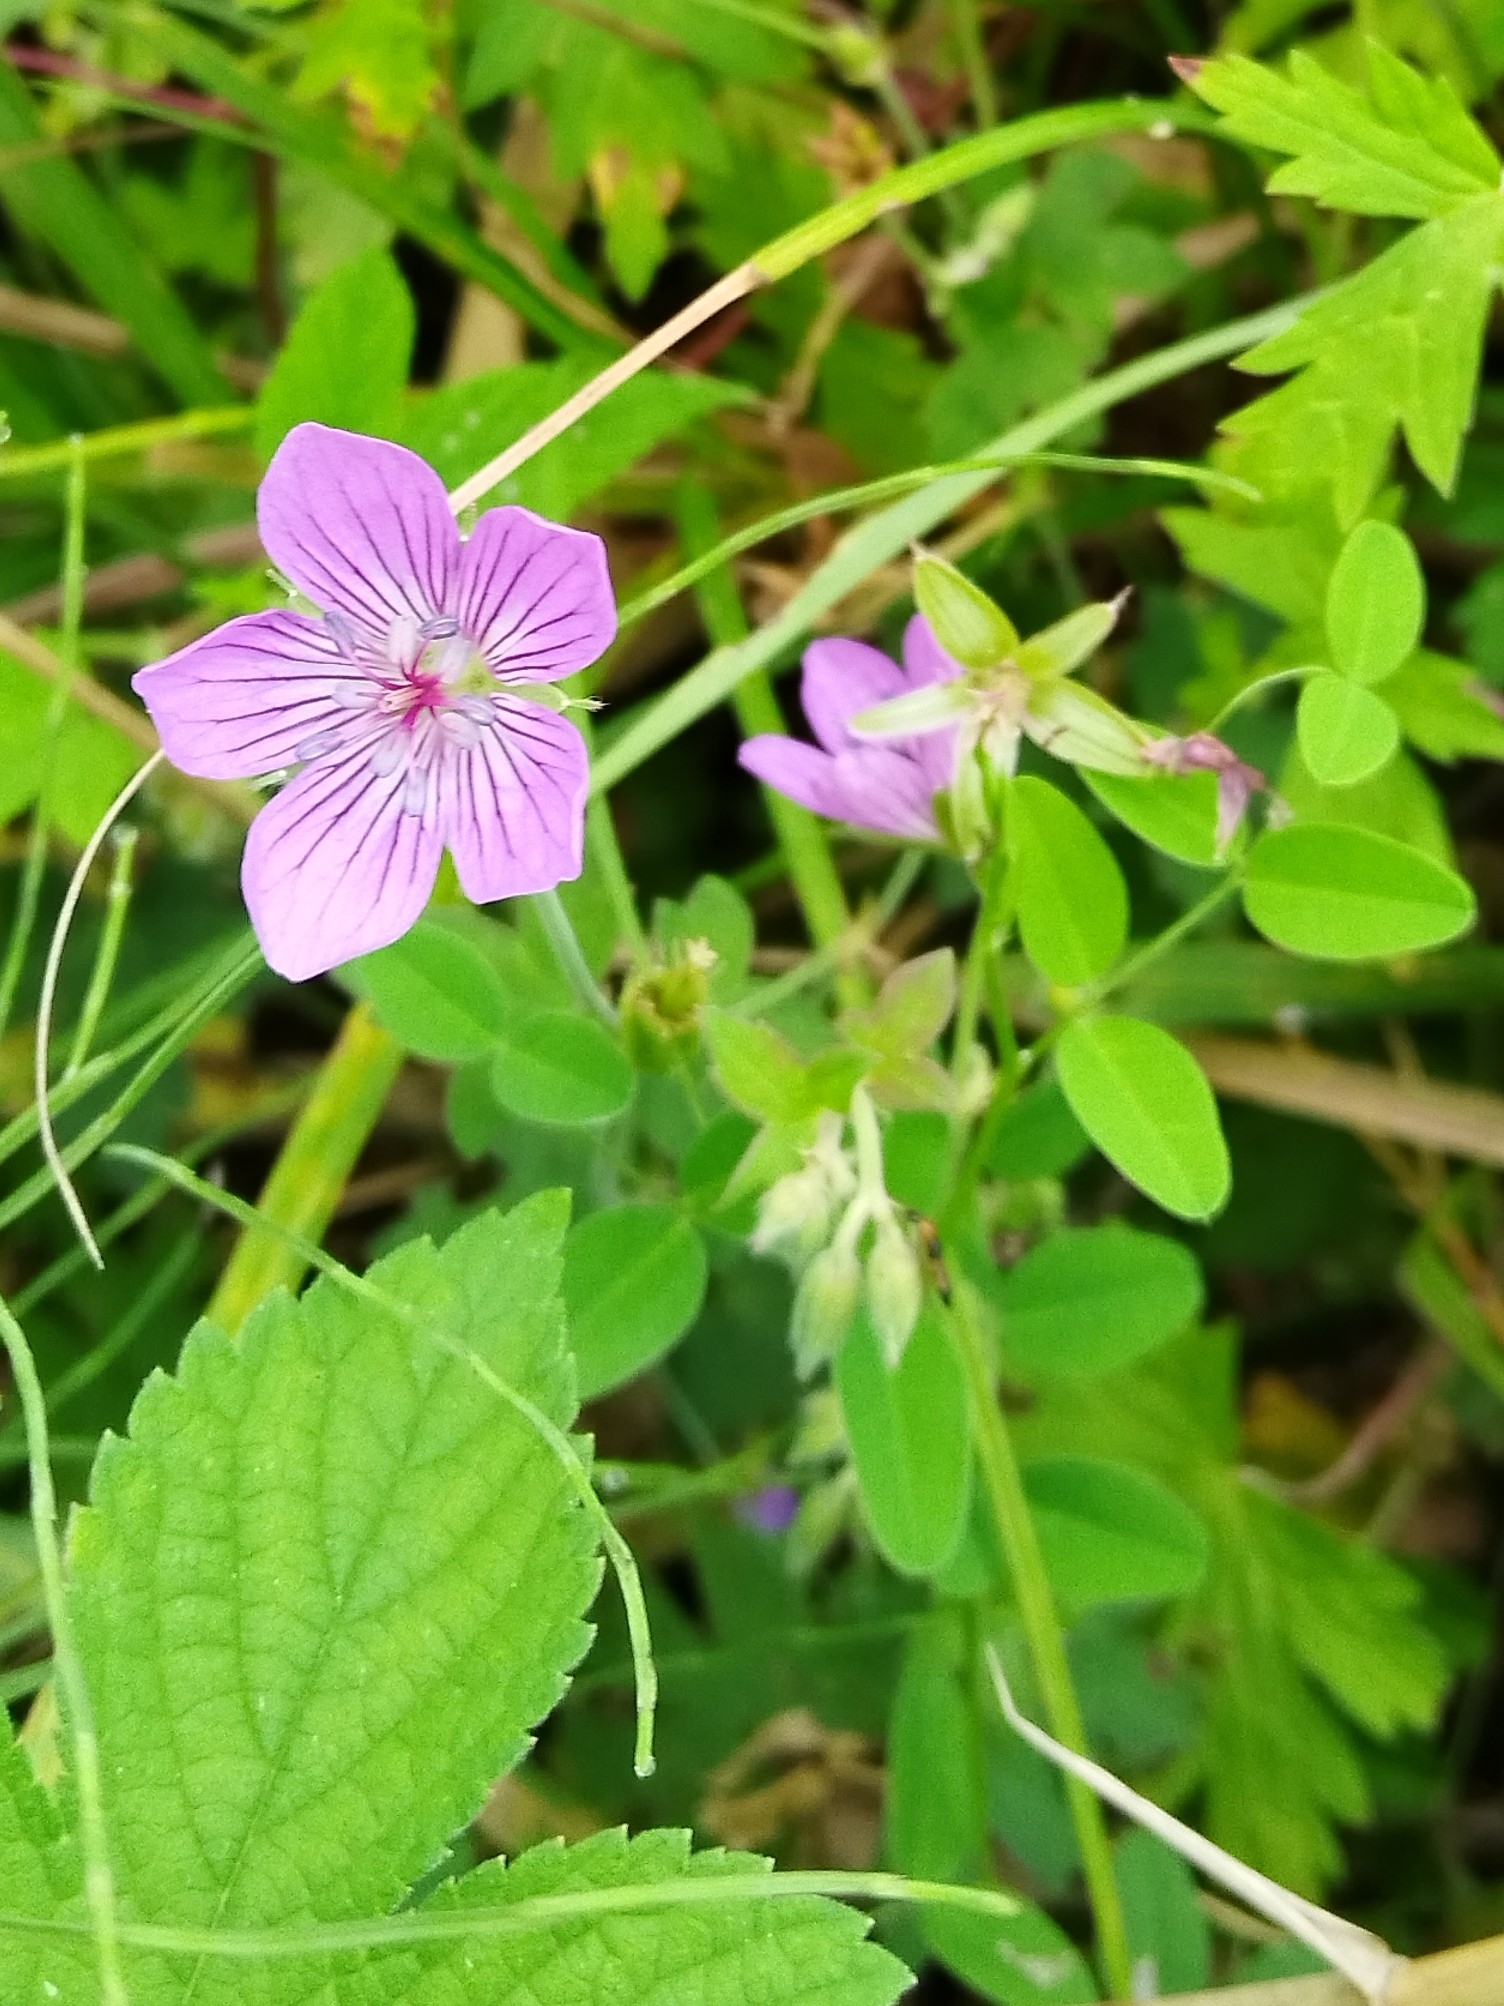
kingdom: Plantae
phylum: Tracheophyta
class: Magnoliopsida
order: Geraniales
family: Geraniaceae
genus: Geranium
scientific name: Geranium wlassovianum
